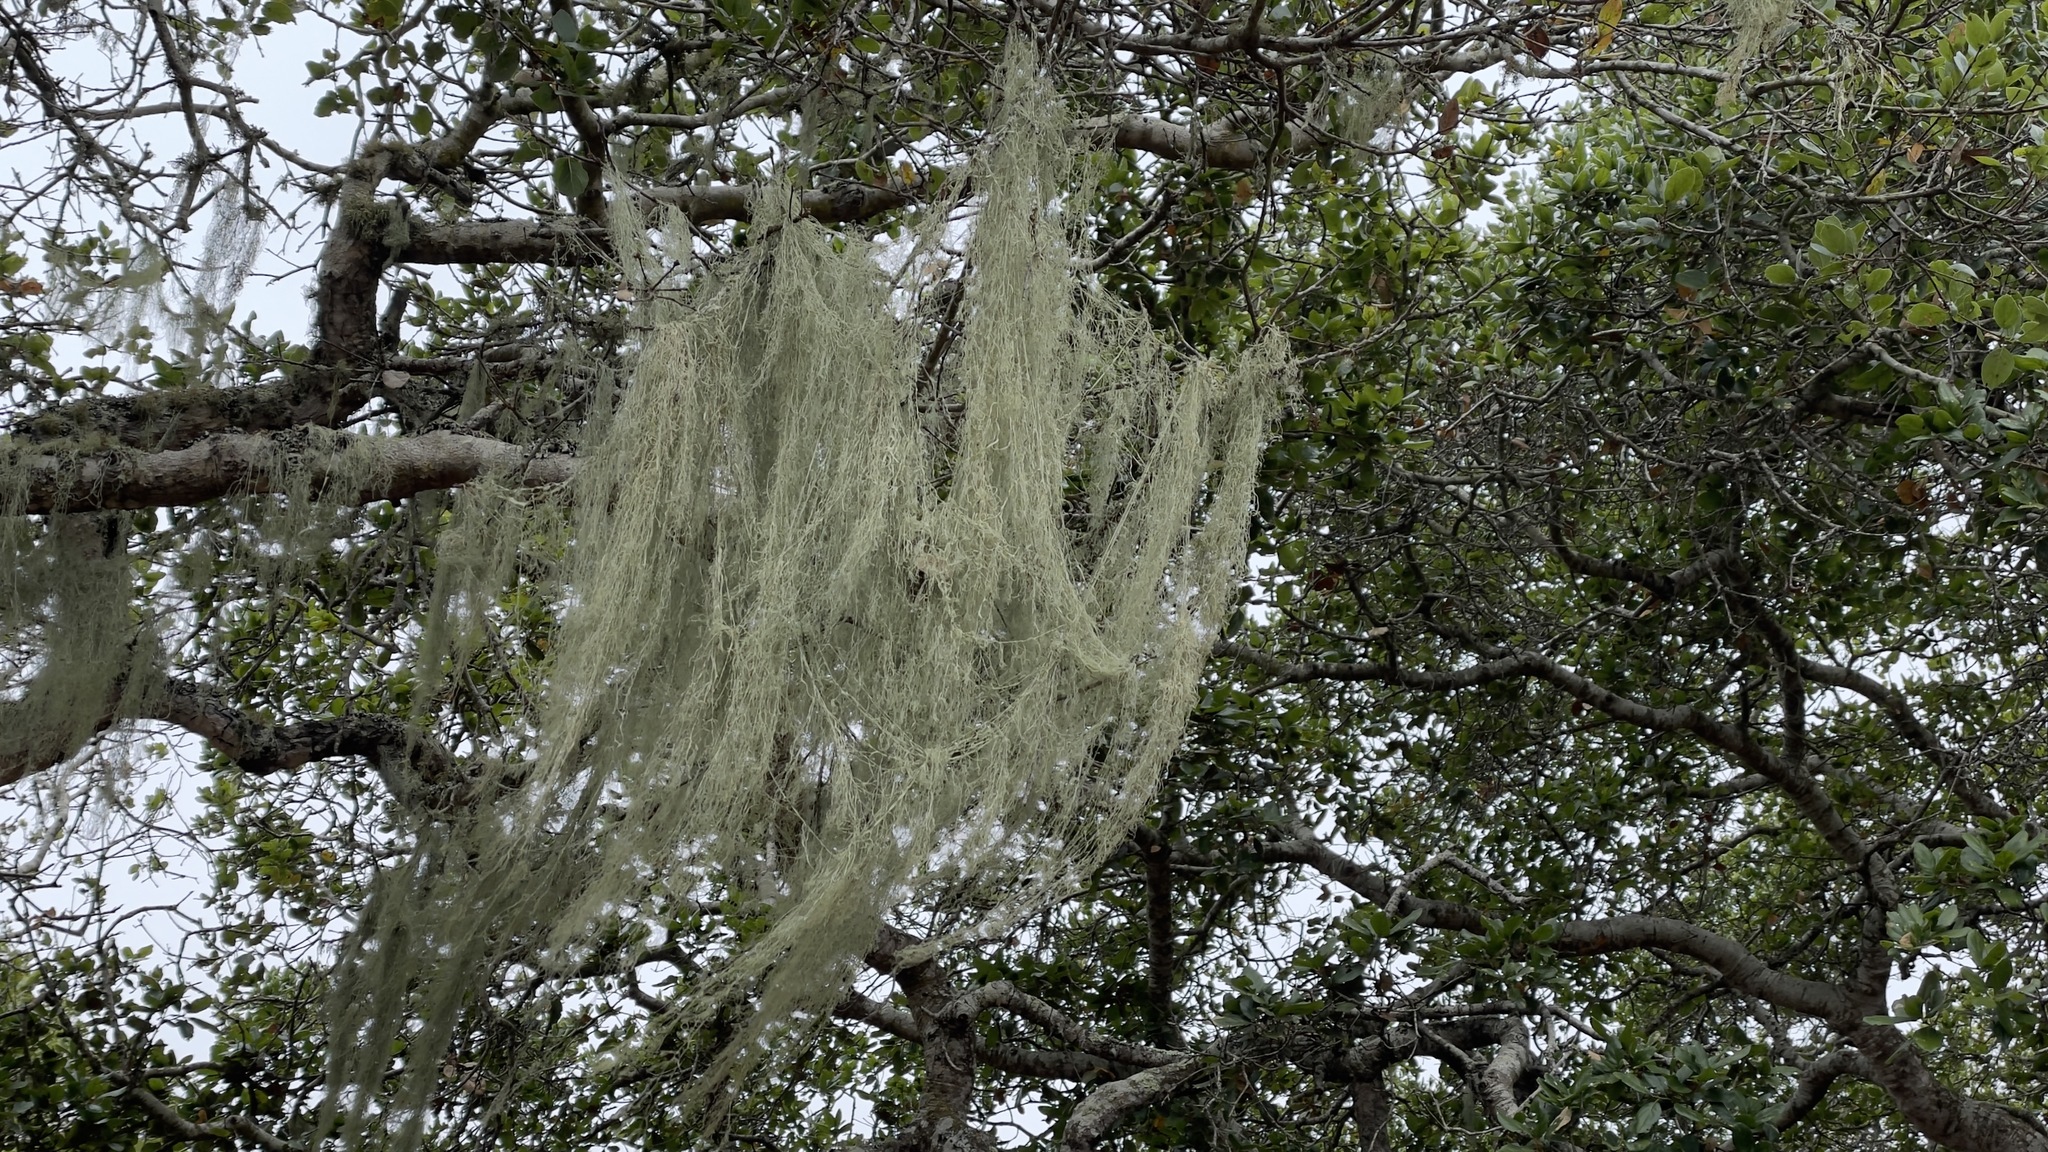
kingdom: Fungi
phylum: Ascomycota
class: Lecanoromycetes
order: Lecanorales
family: Ramalinaceae
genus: Ramalina
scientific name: Ramalina menziesii
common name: Lace lichen
